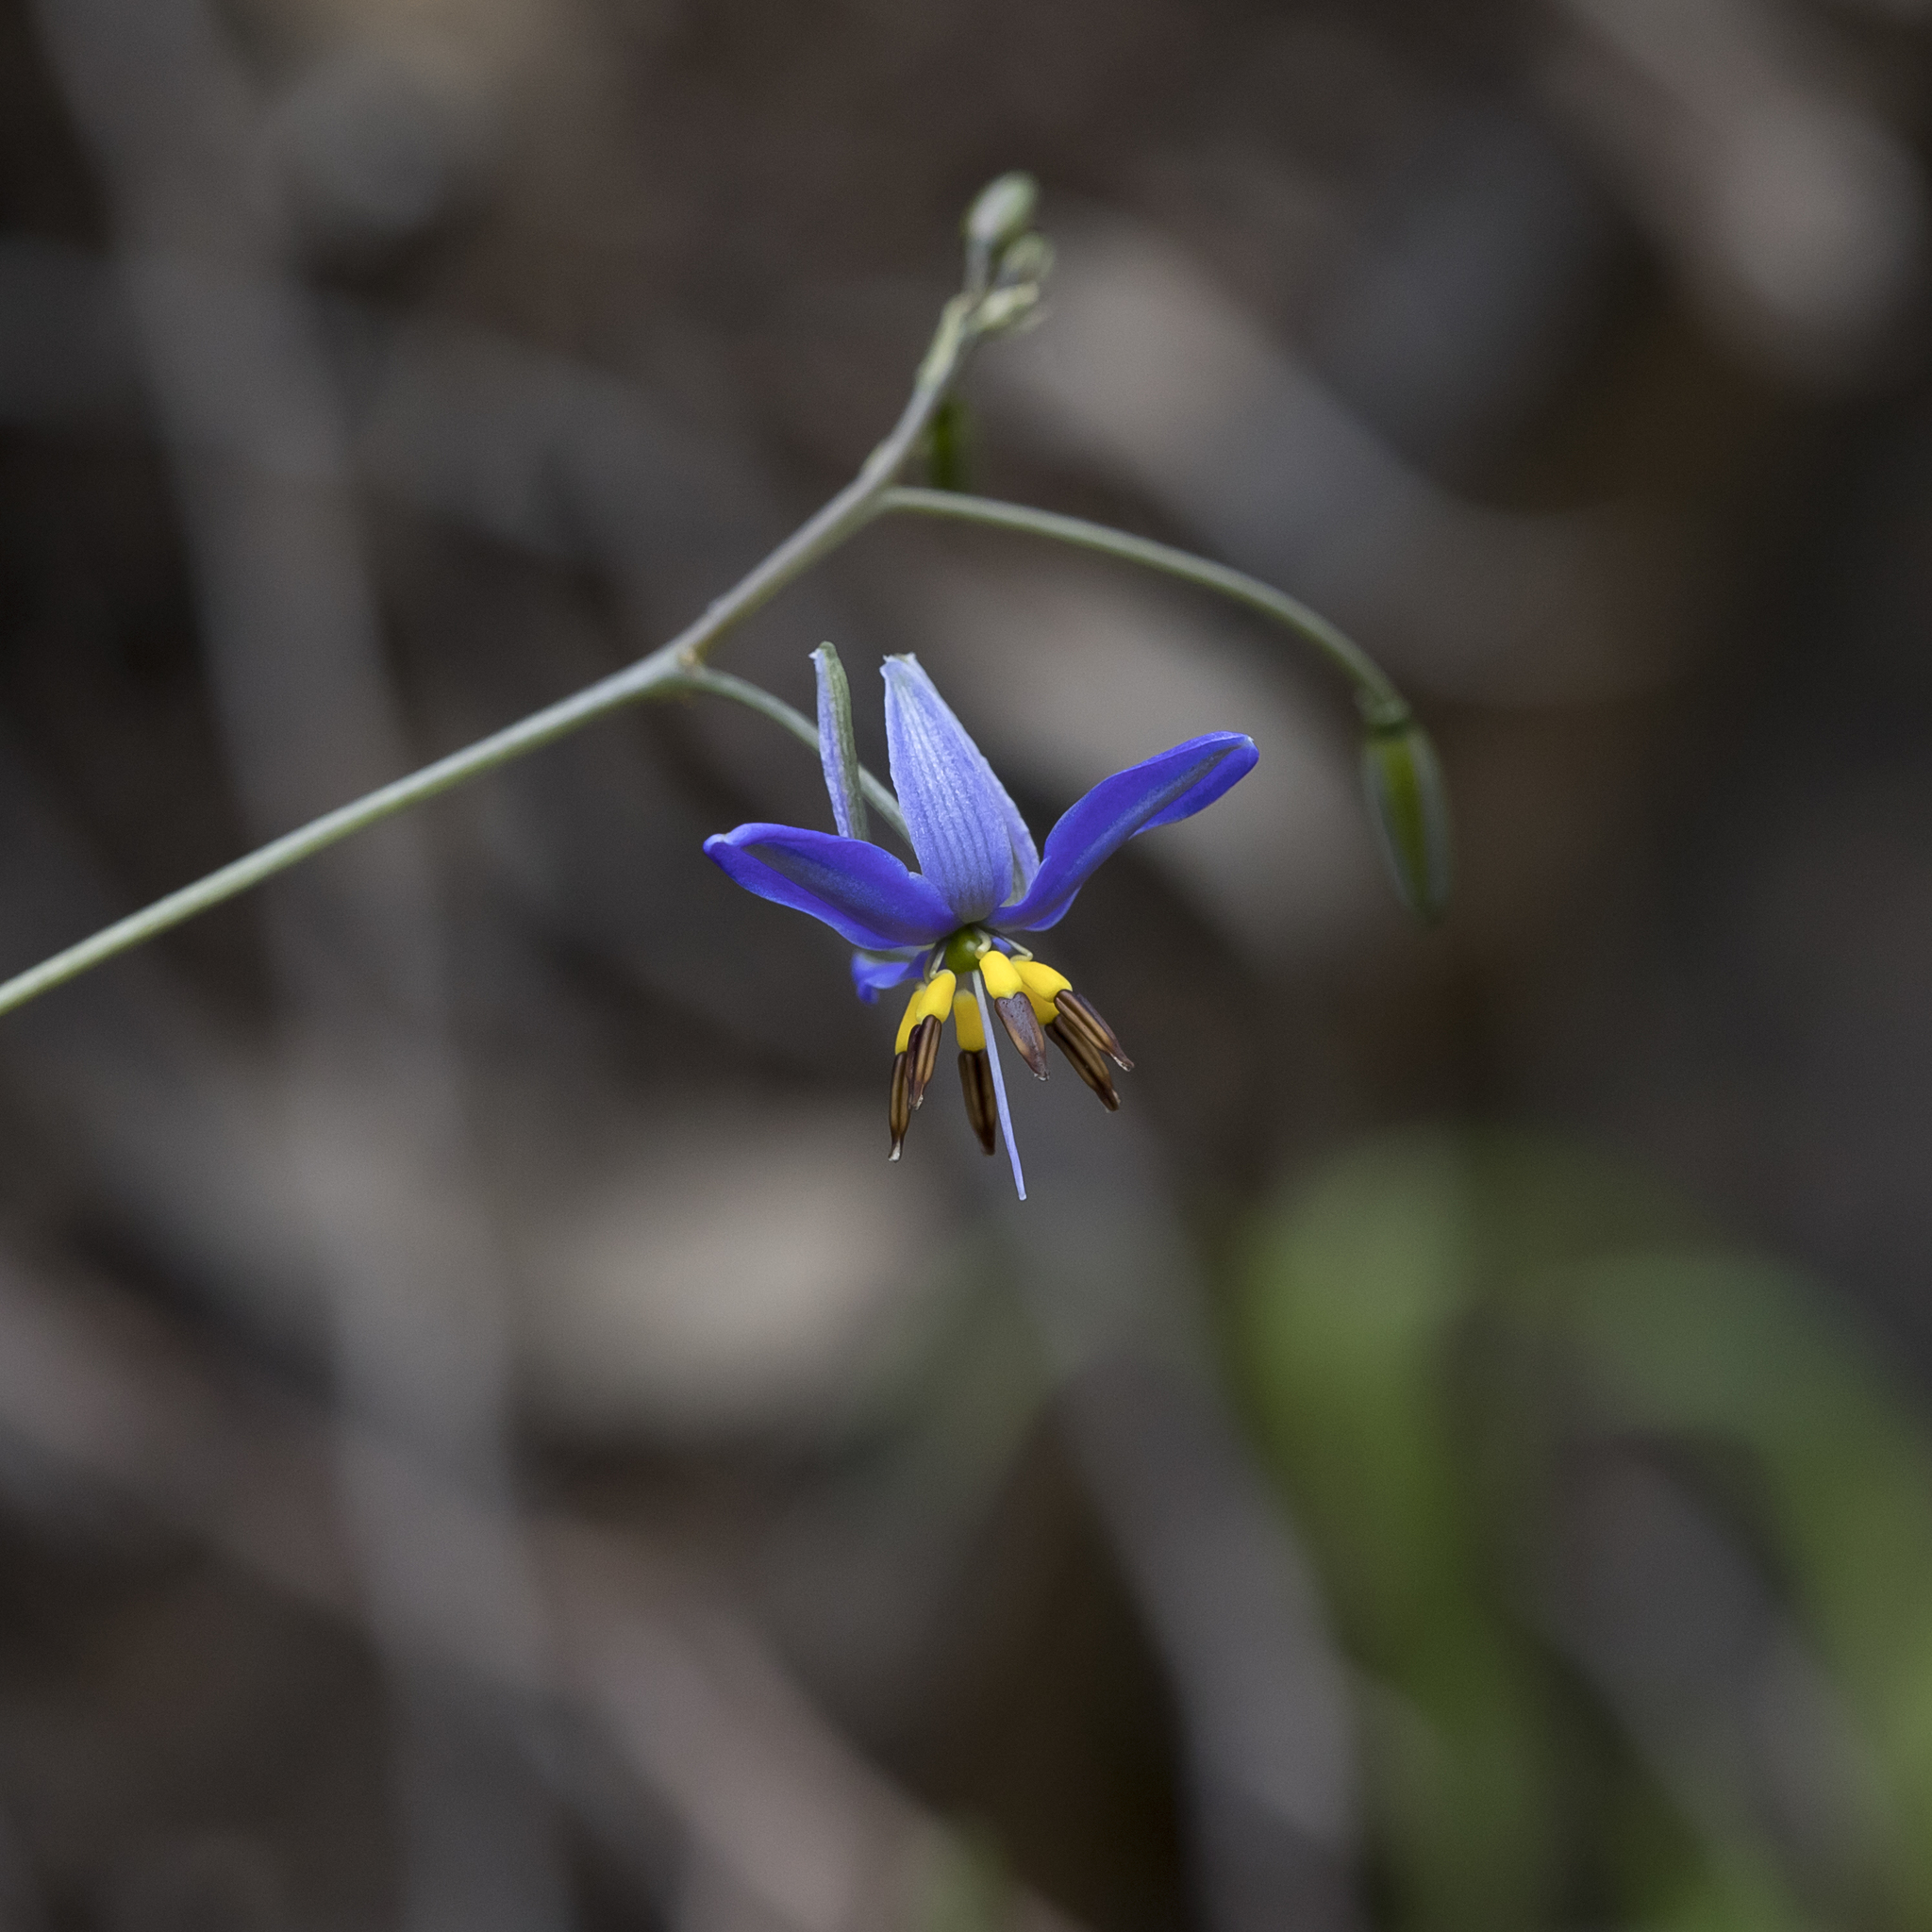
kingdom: Plantae
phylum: Tracheophyta
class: Liliopsida
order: Asparagales
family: Asphodelaceae
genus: Dianella
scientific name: Dianella revoluta
